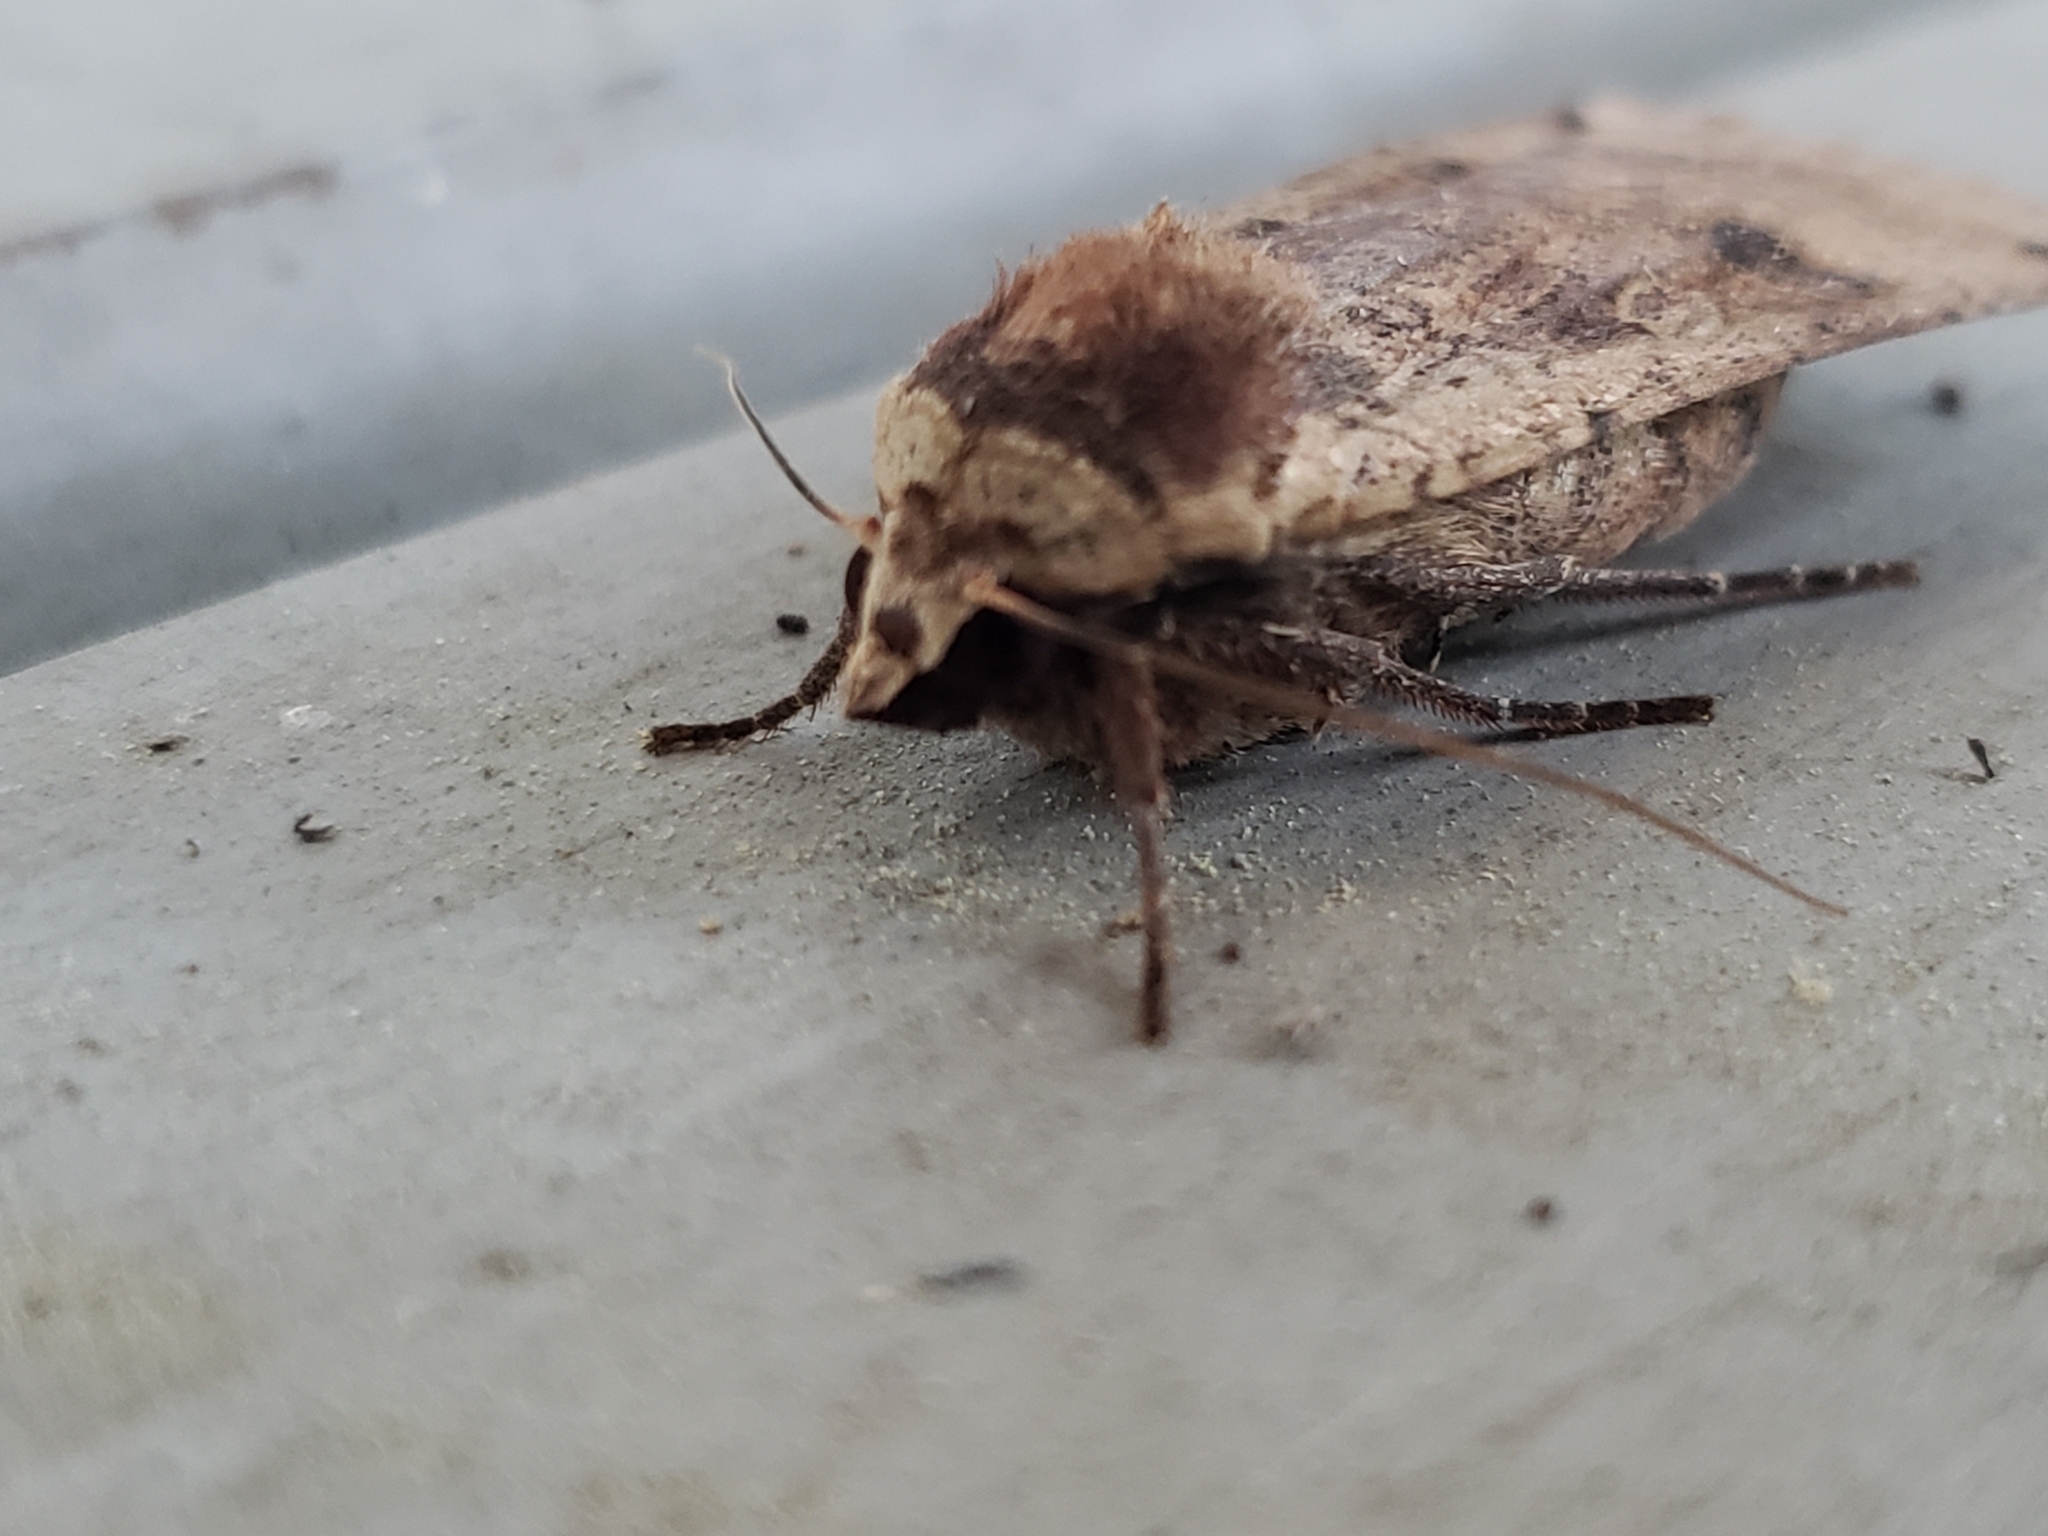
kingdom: Animalia
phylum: Arthropoda
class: Insecta
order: Lepidoptera
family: Noctuidae
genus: Noctua
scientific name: Noctua pronuba
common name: Large yellow underwing
